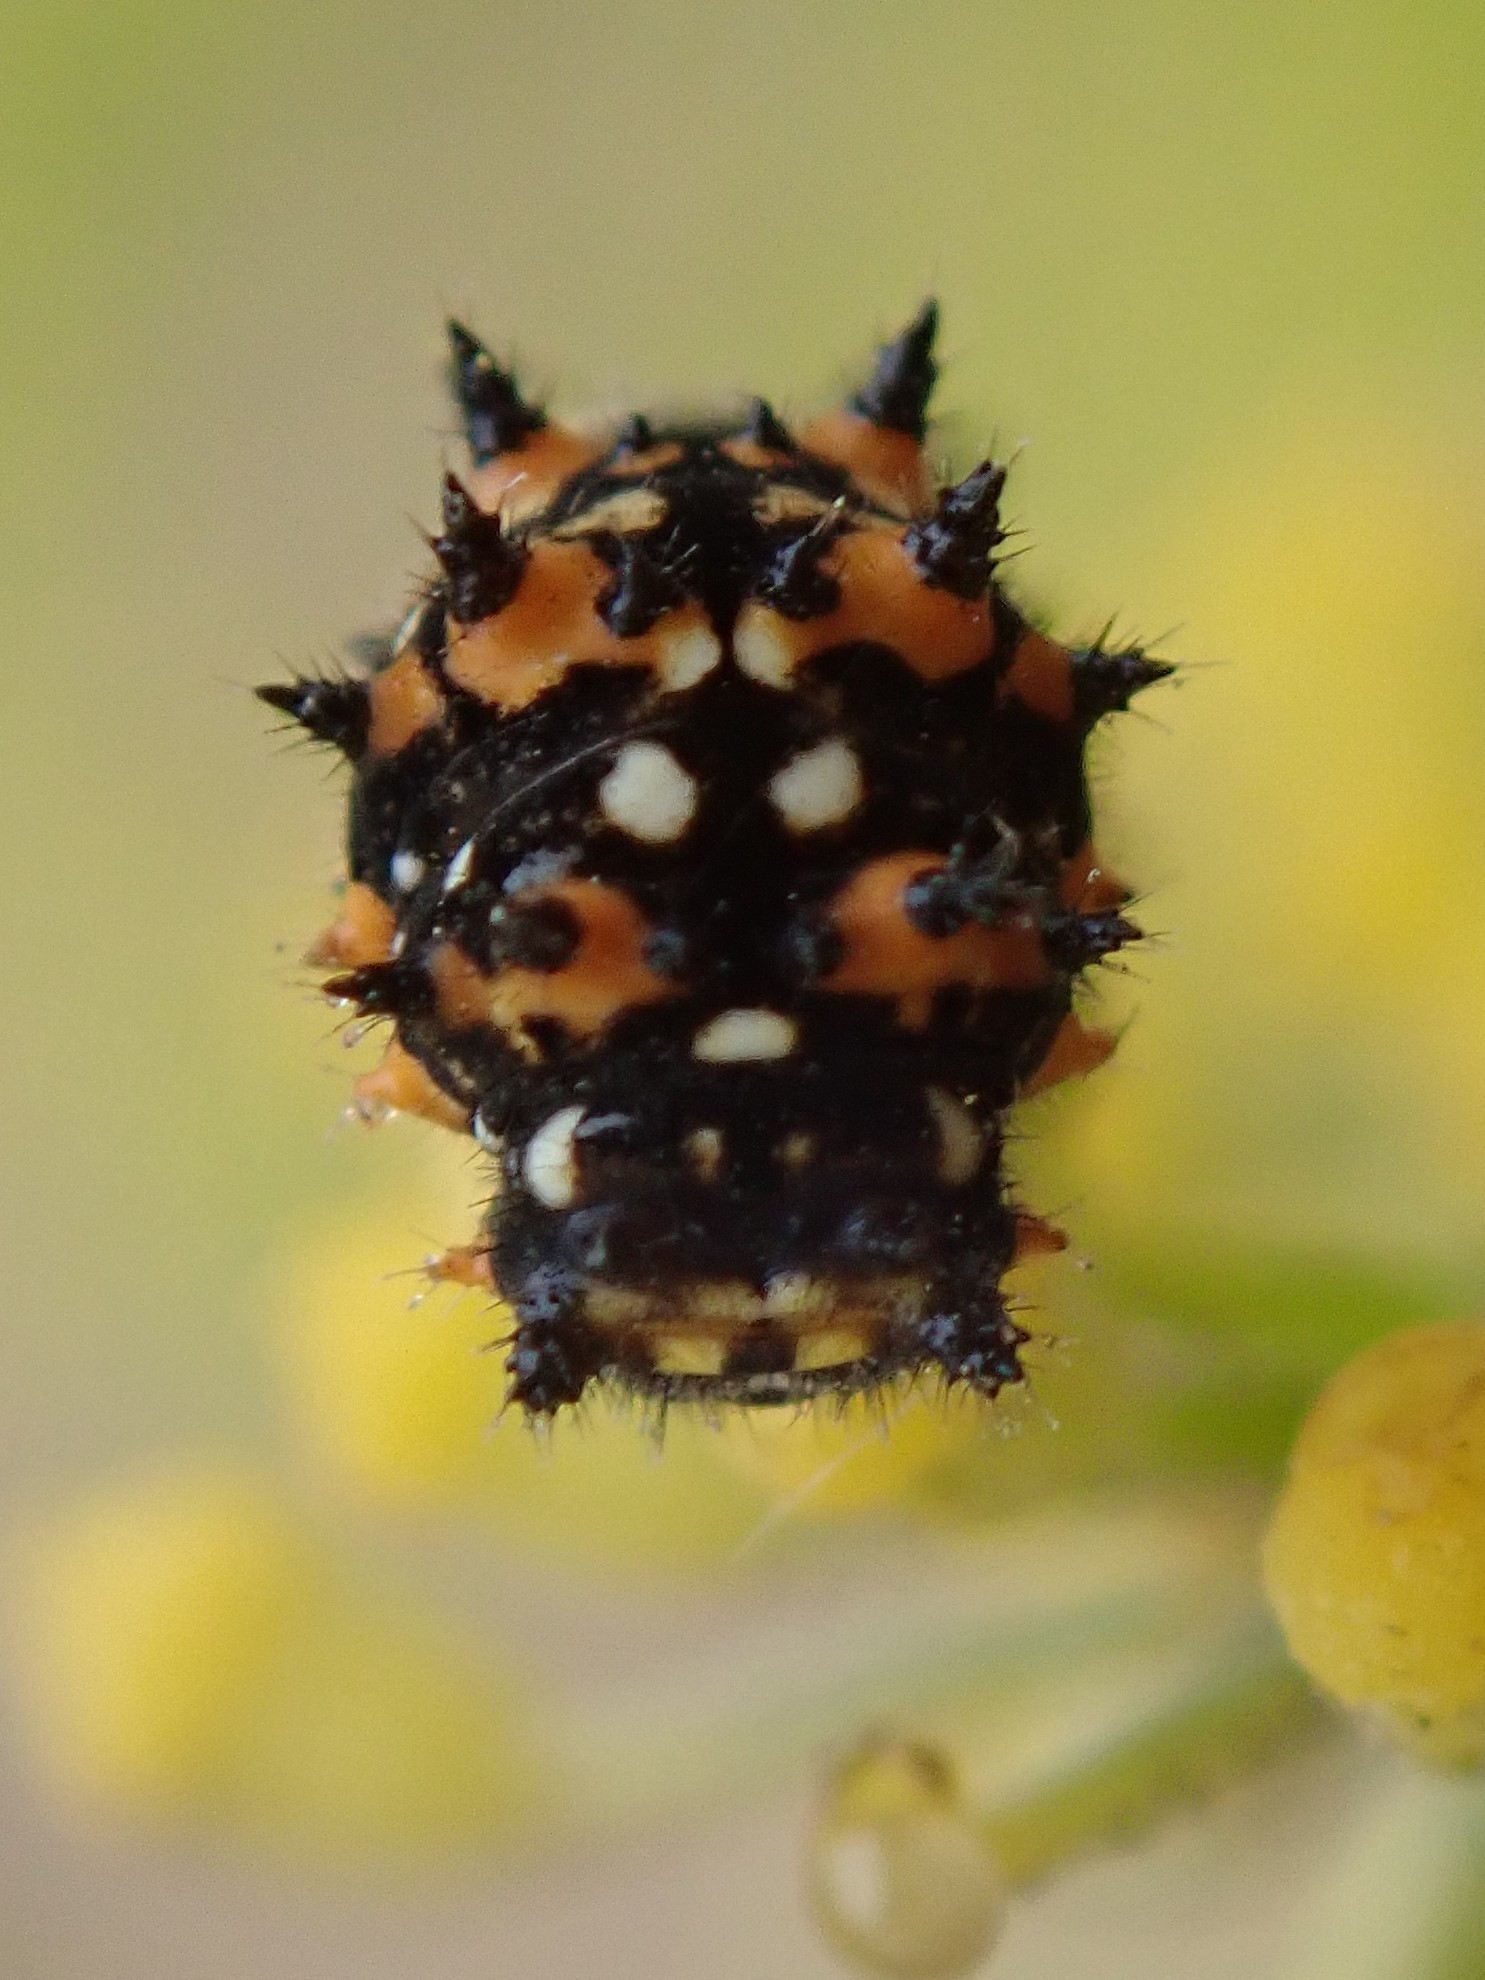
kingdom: Animalia
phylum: Arthropoda
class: Insecta
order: Lepidoptera
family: Papilionidae
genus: Papilio
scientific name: Papilio zelicaon
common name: Anise swallowtail
